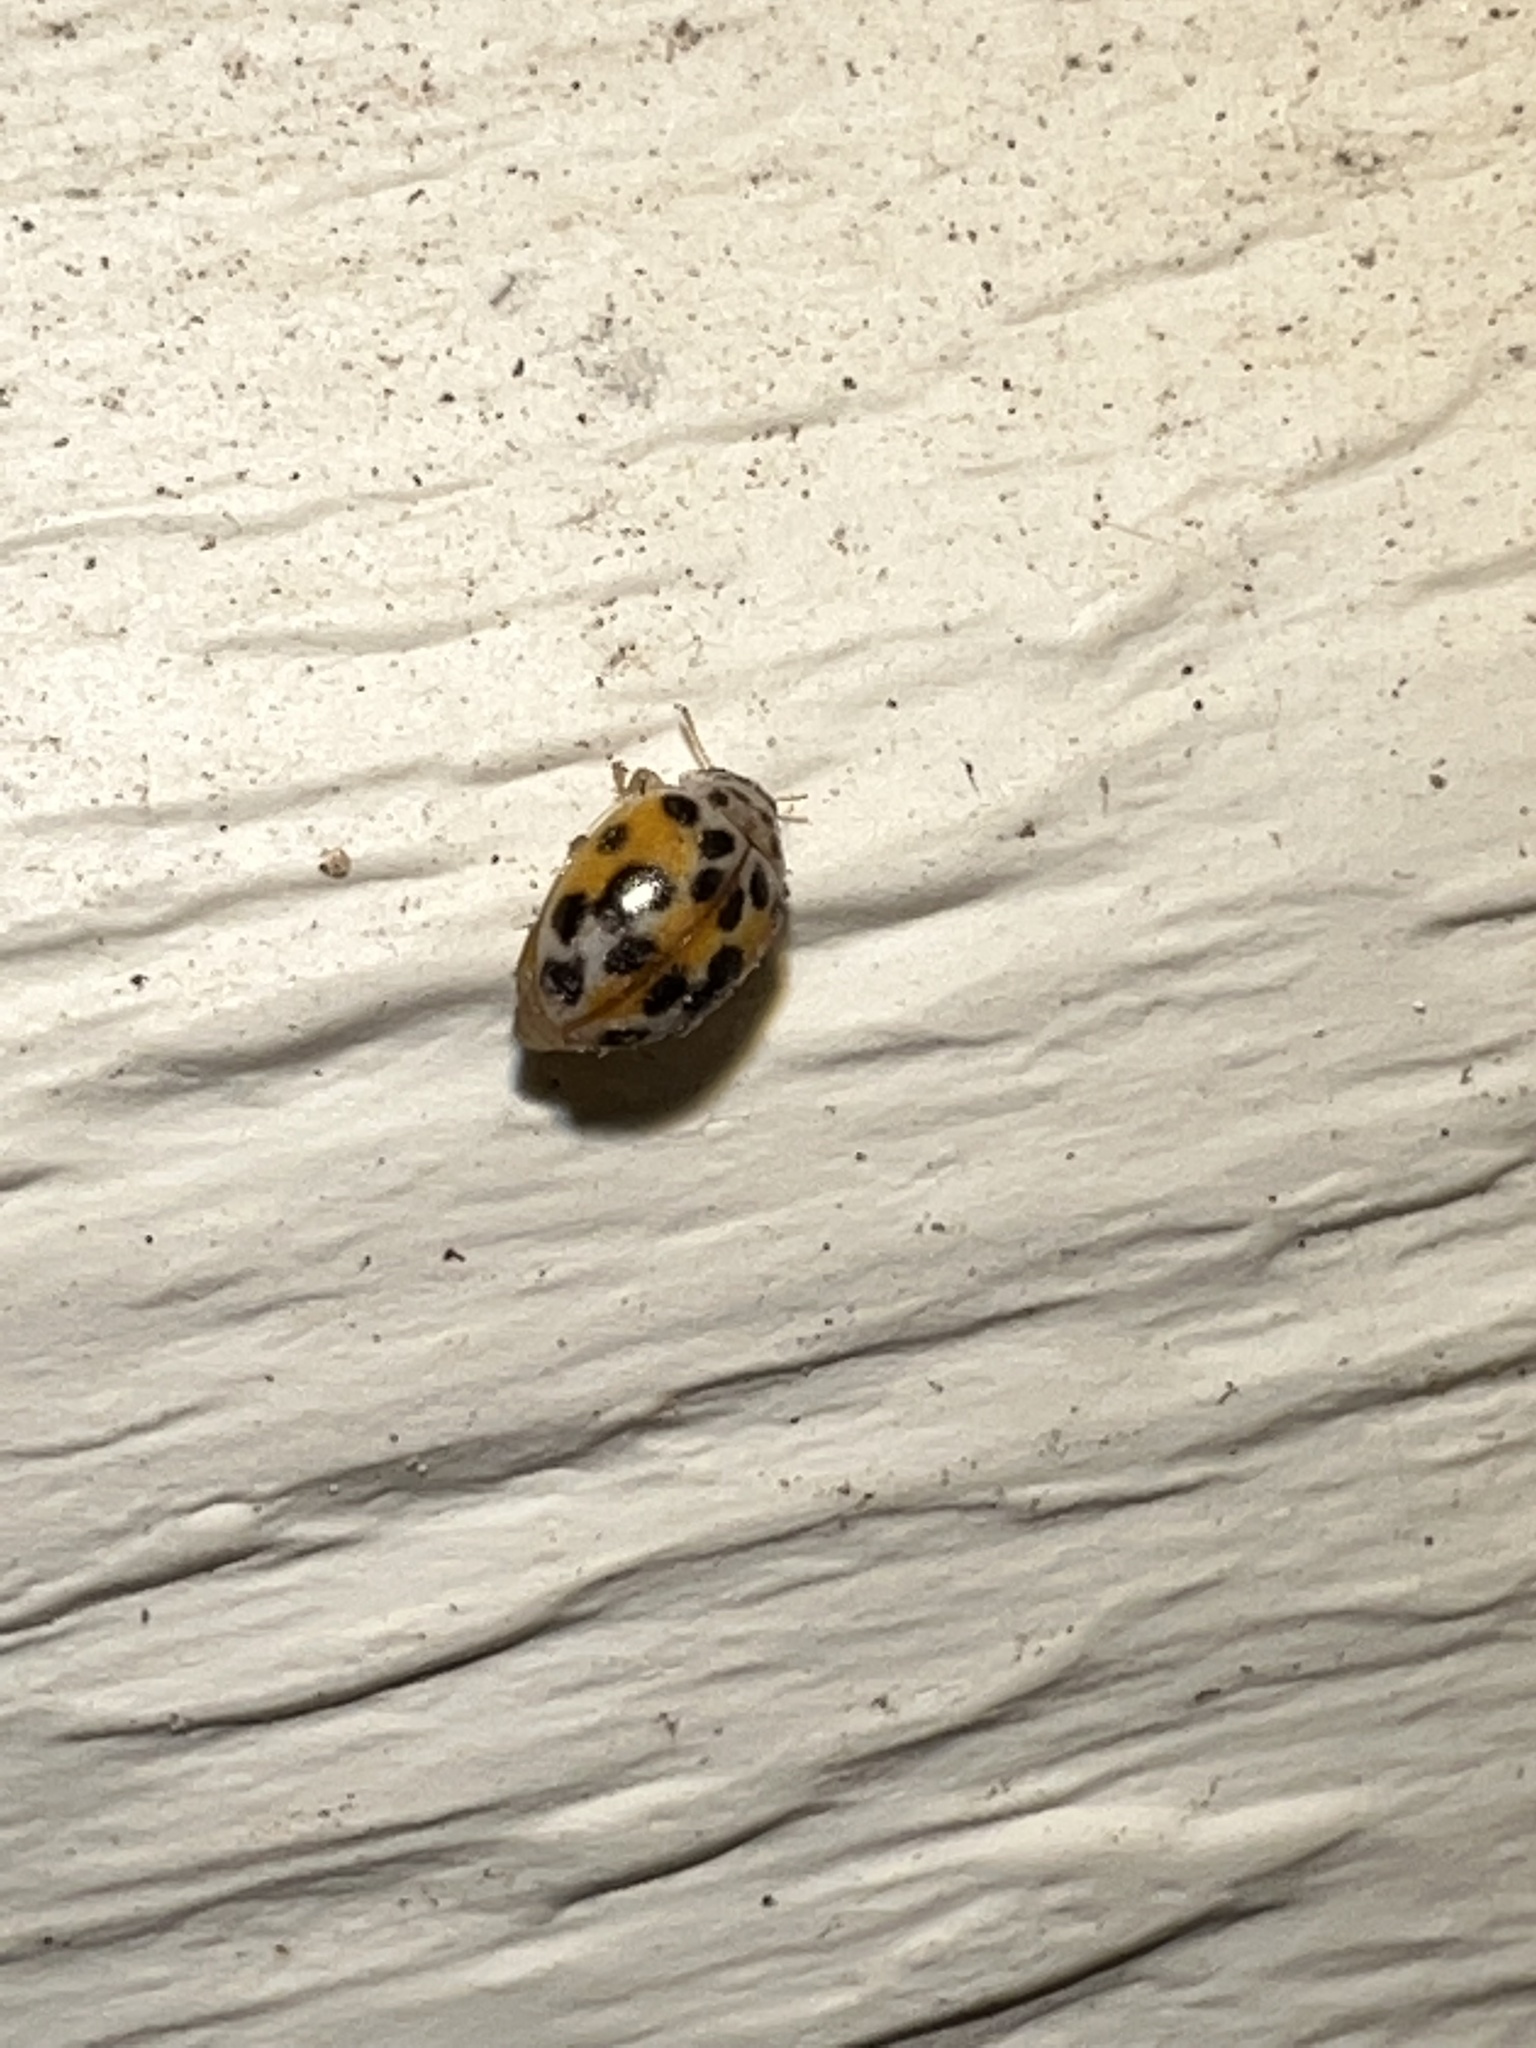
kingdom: Animalia
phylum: Arthropoda
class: Insecta
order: Coleoptera
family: Coccinellidae
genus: Psyllobora
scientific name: Psyllobora vigintimaculata
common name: Ladybird beetle
